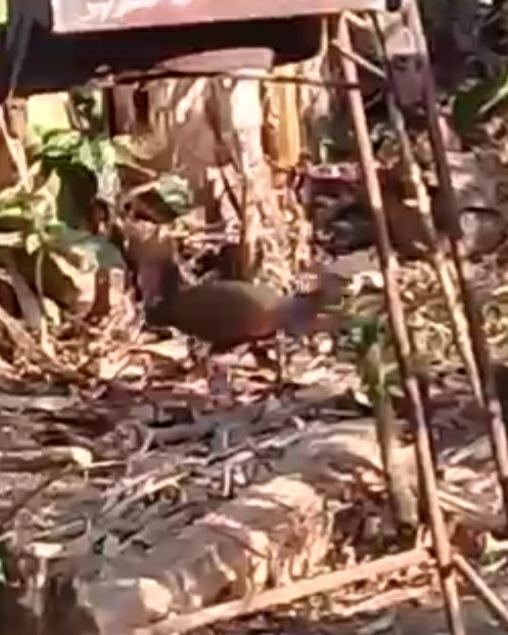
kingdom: Animalia
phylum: Chordata
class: Aves
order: Gruiformes
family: Rallidae
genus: Aramides
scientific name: Aramides cajanea
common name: Gray-necked wood-rail
